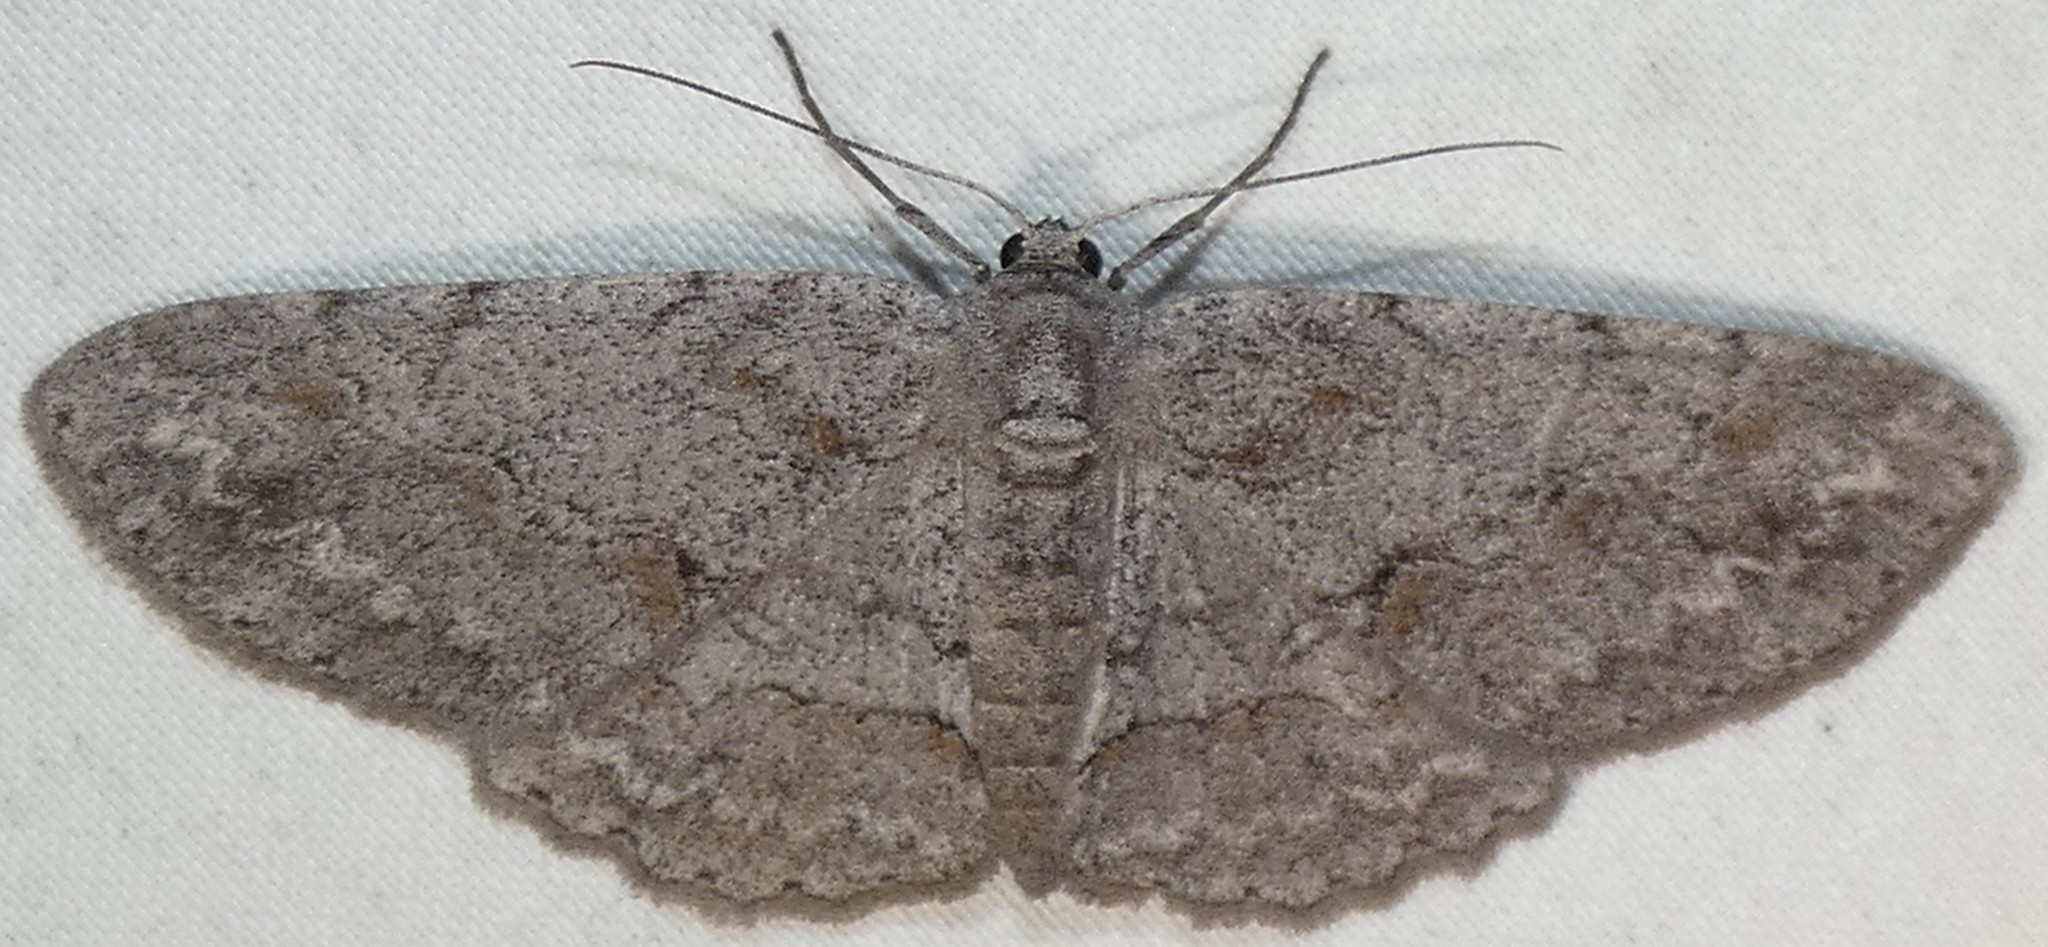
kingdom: Animalia
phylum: Arthropoda
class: Insecta
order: Lepidoptera
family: Geometridae
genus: Iridopsis
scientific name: Iridopsis vellivolata
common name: Large purplish gray
